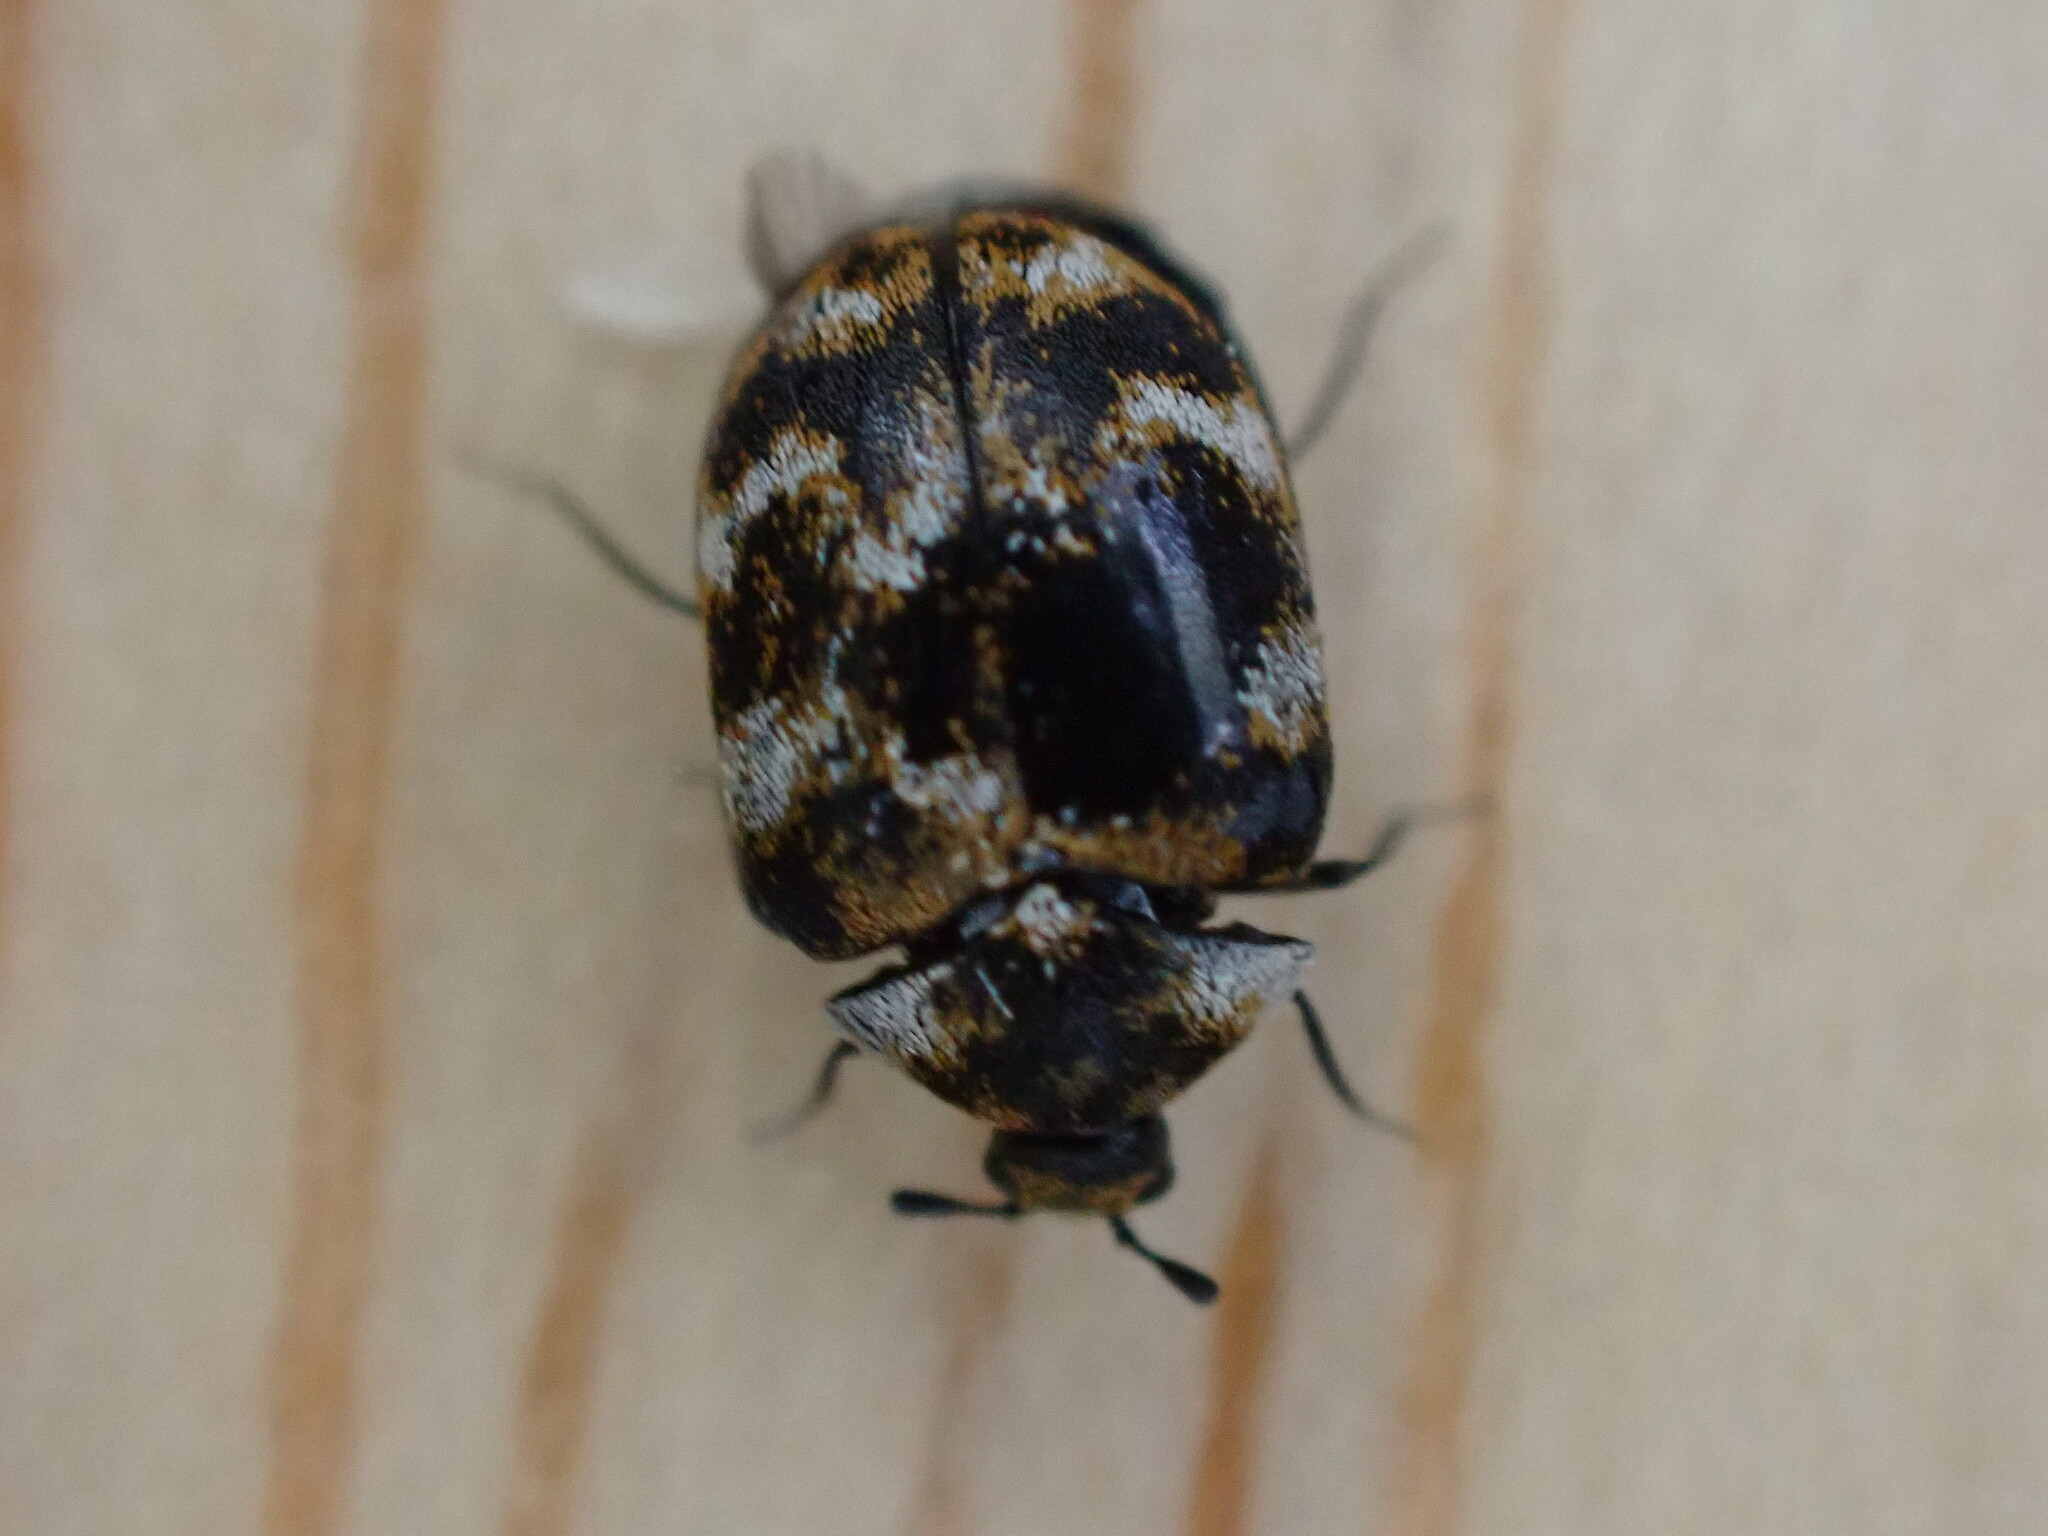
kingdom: Animalia
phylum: Arthropoda
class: Insecta
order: Coleoptera
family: Dermestidae
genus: Anthrenus
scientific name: Anthrenus verbasci
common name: Varied carpet beetle
